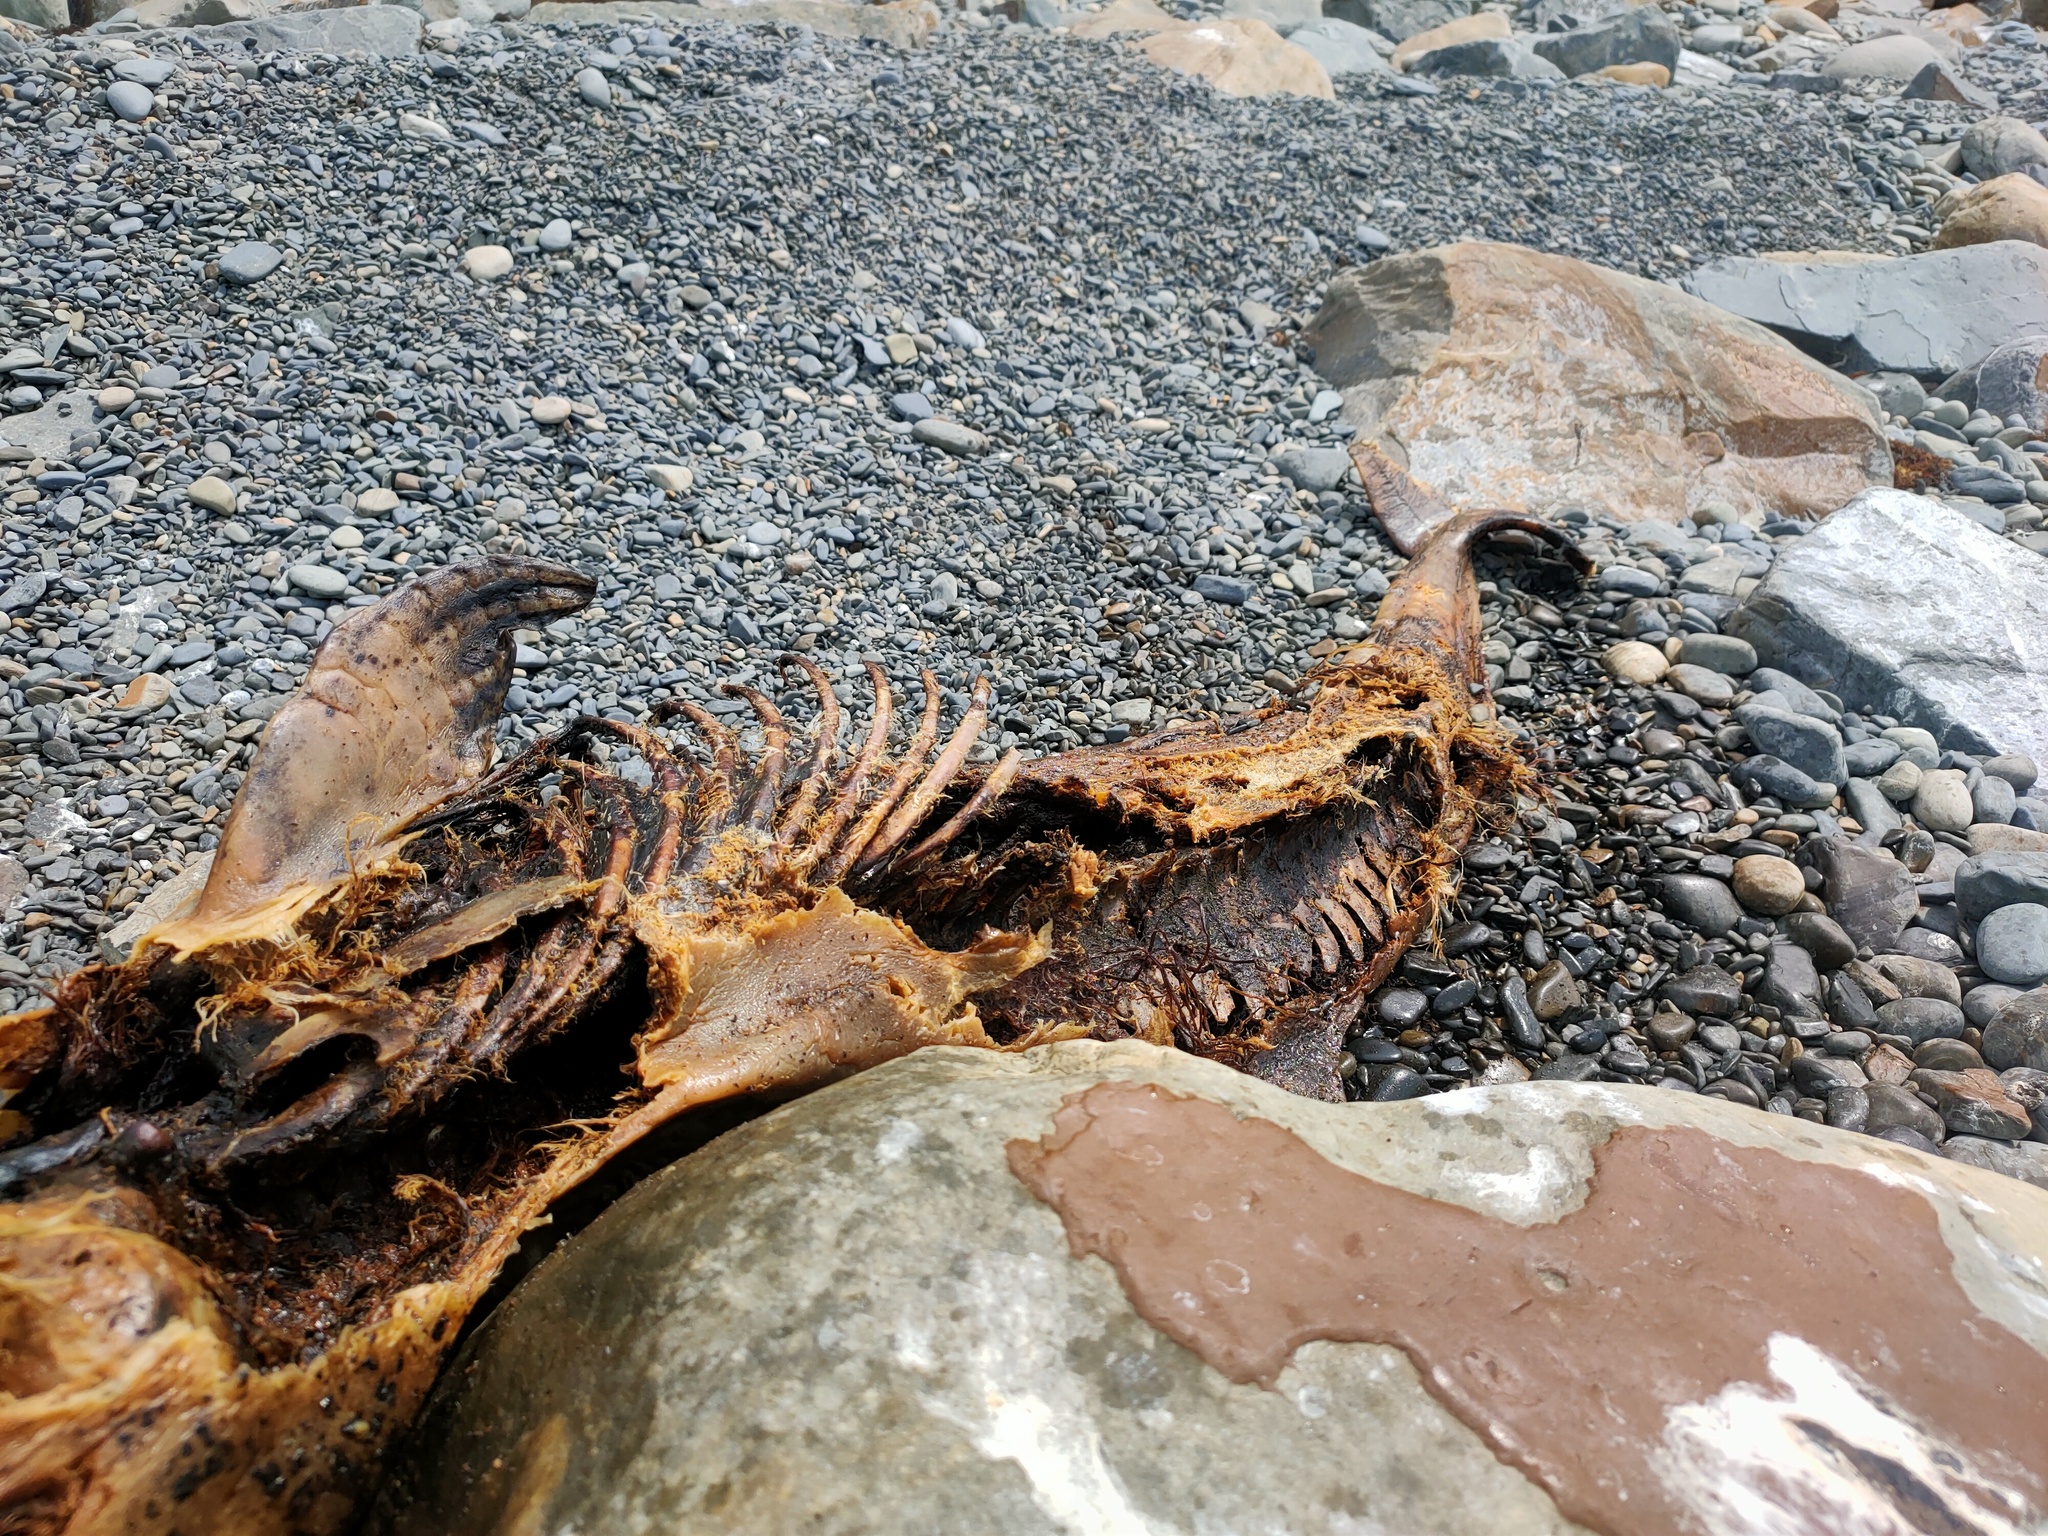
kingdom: Animalia
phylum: Chordata
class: Mammalia
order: Cetacea
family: Phocoenidae
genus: Phocoena
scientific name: Phocoena phocoena
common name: Harbor porpoise
